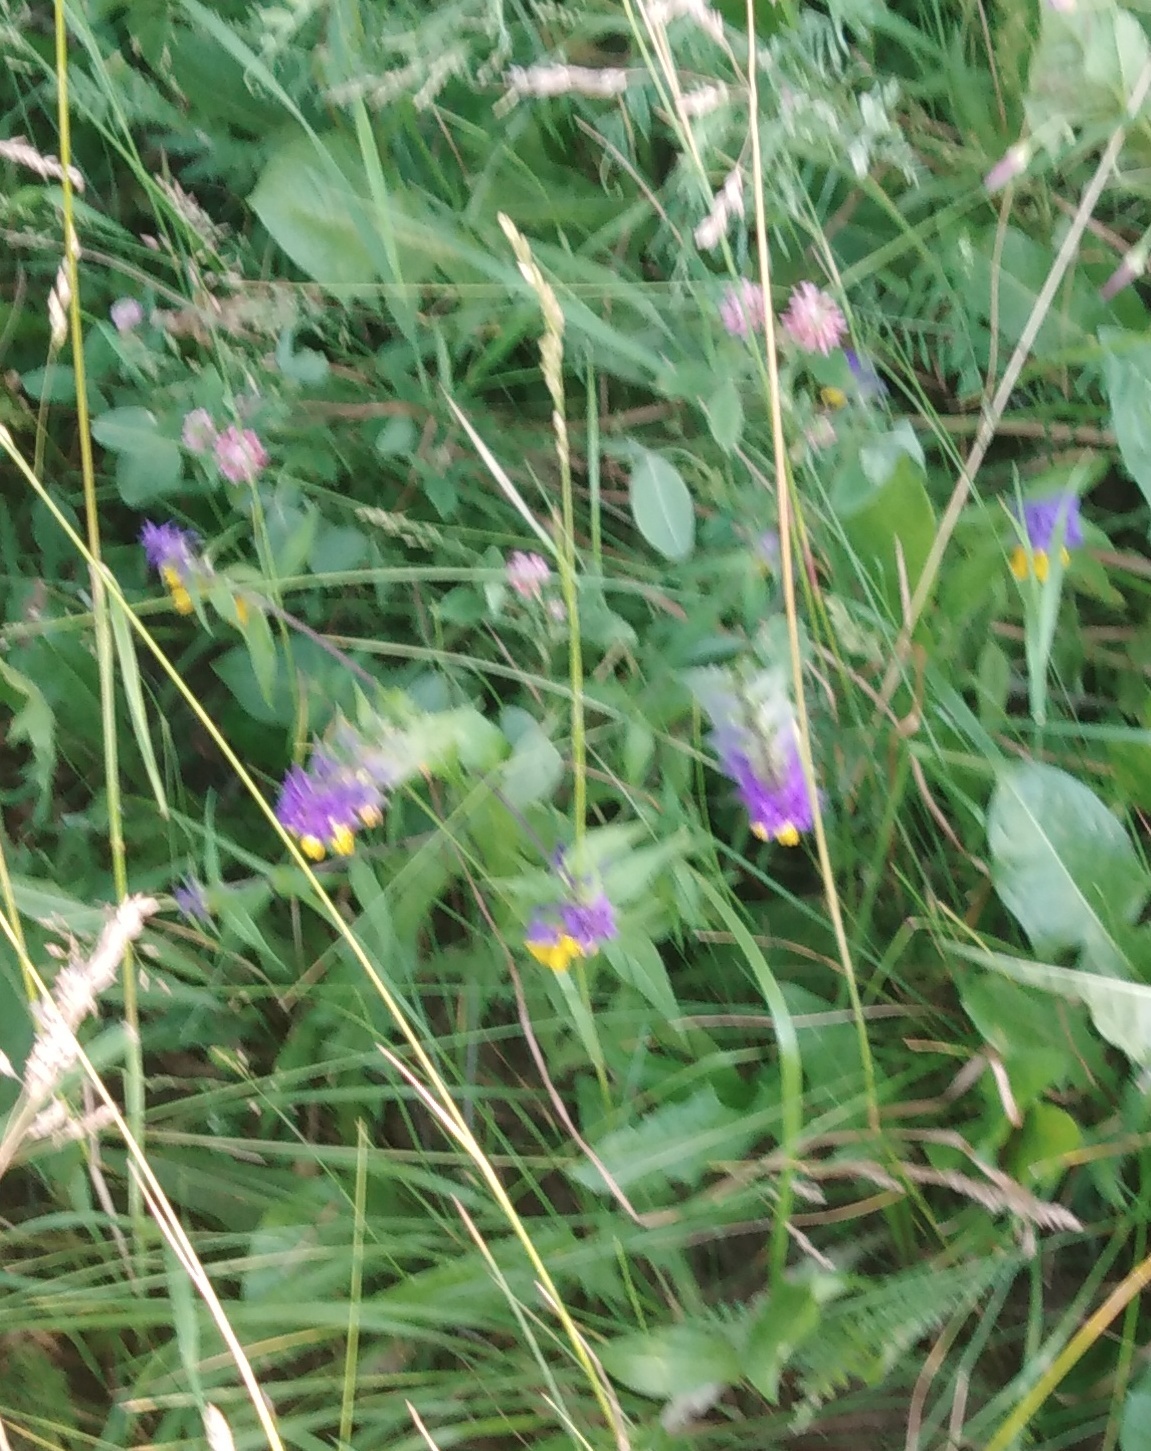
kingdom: Plantae
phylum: Tracheophyta
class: Magnoliopsida
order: Lamiales
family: Orobanchaceae
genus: Melampyrum
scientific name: Melampyrum nemorosum
